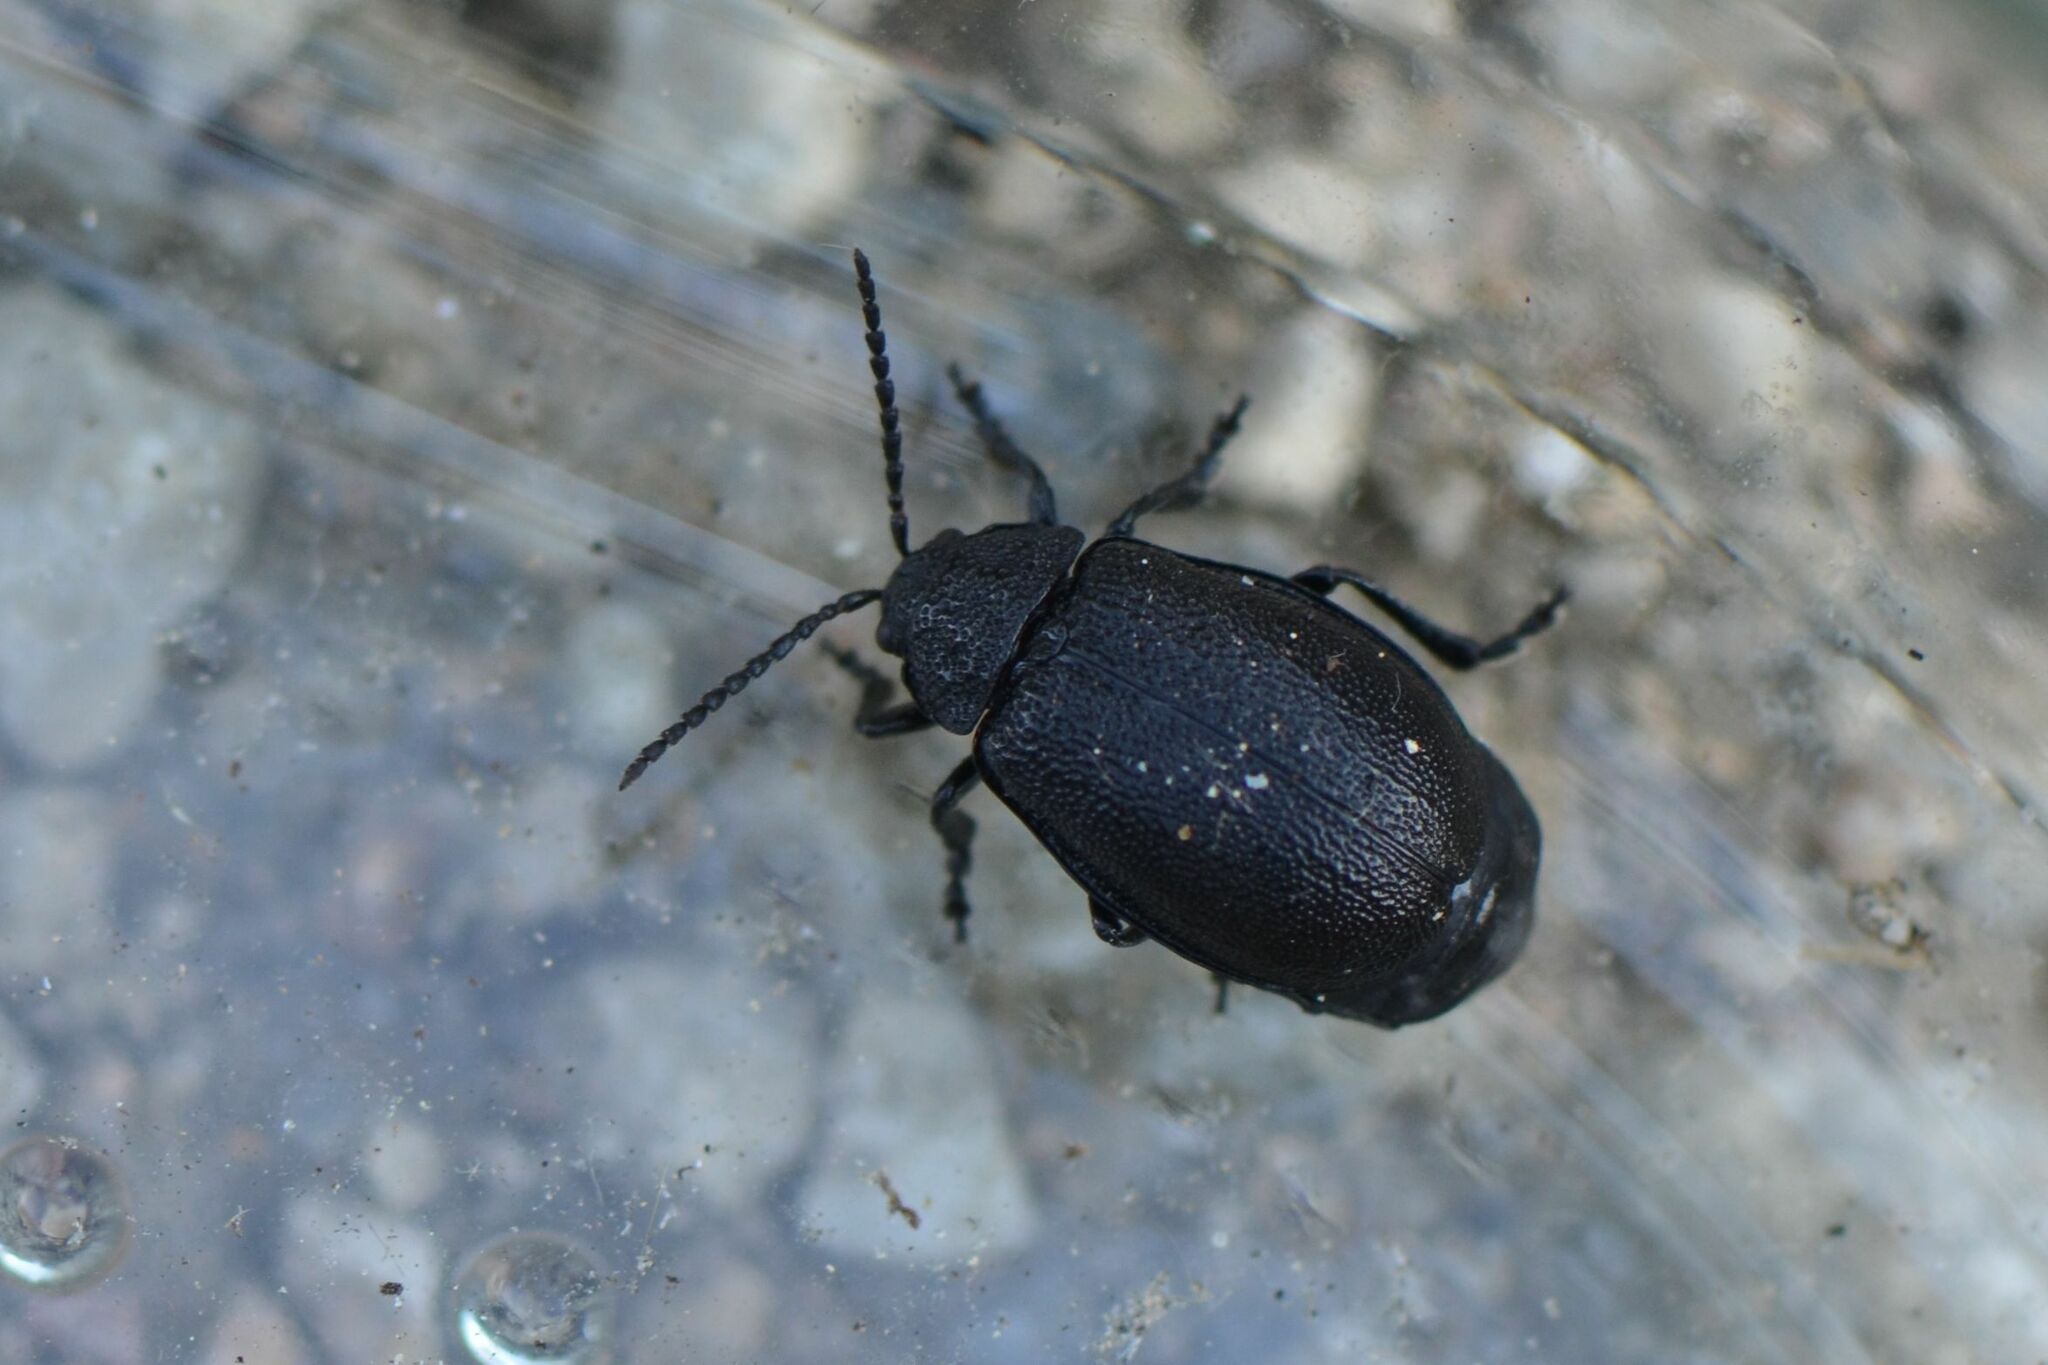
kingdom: Animalia
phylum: Arthropoda
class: Insecta
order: Coleoptera
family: Chrysomelidae
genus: Galeruca
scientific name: Galeruca tanaceti
